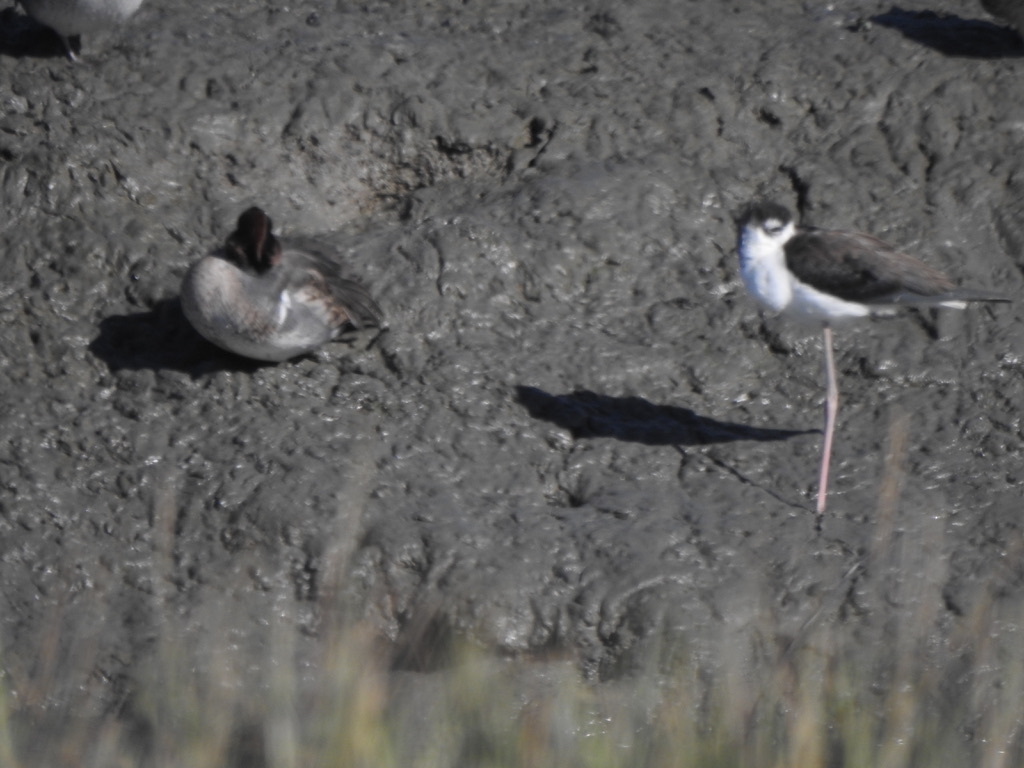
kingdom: Animalia
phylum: Chordata
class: Aves
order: Anseriformes
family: Anatidae
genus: Anas
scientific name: Anas crecca
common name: Eurasian teal
